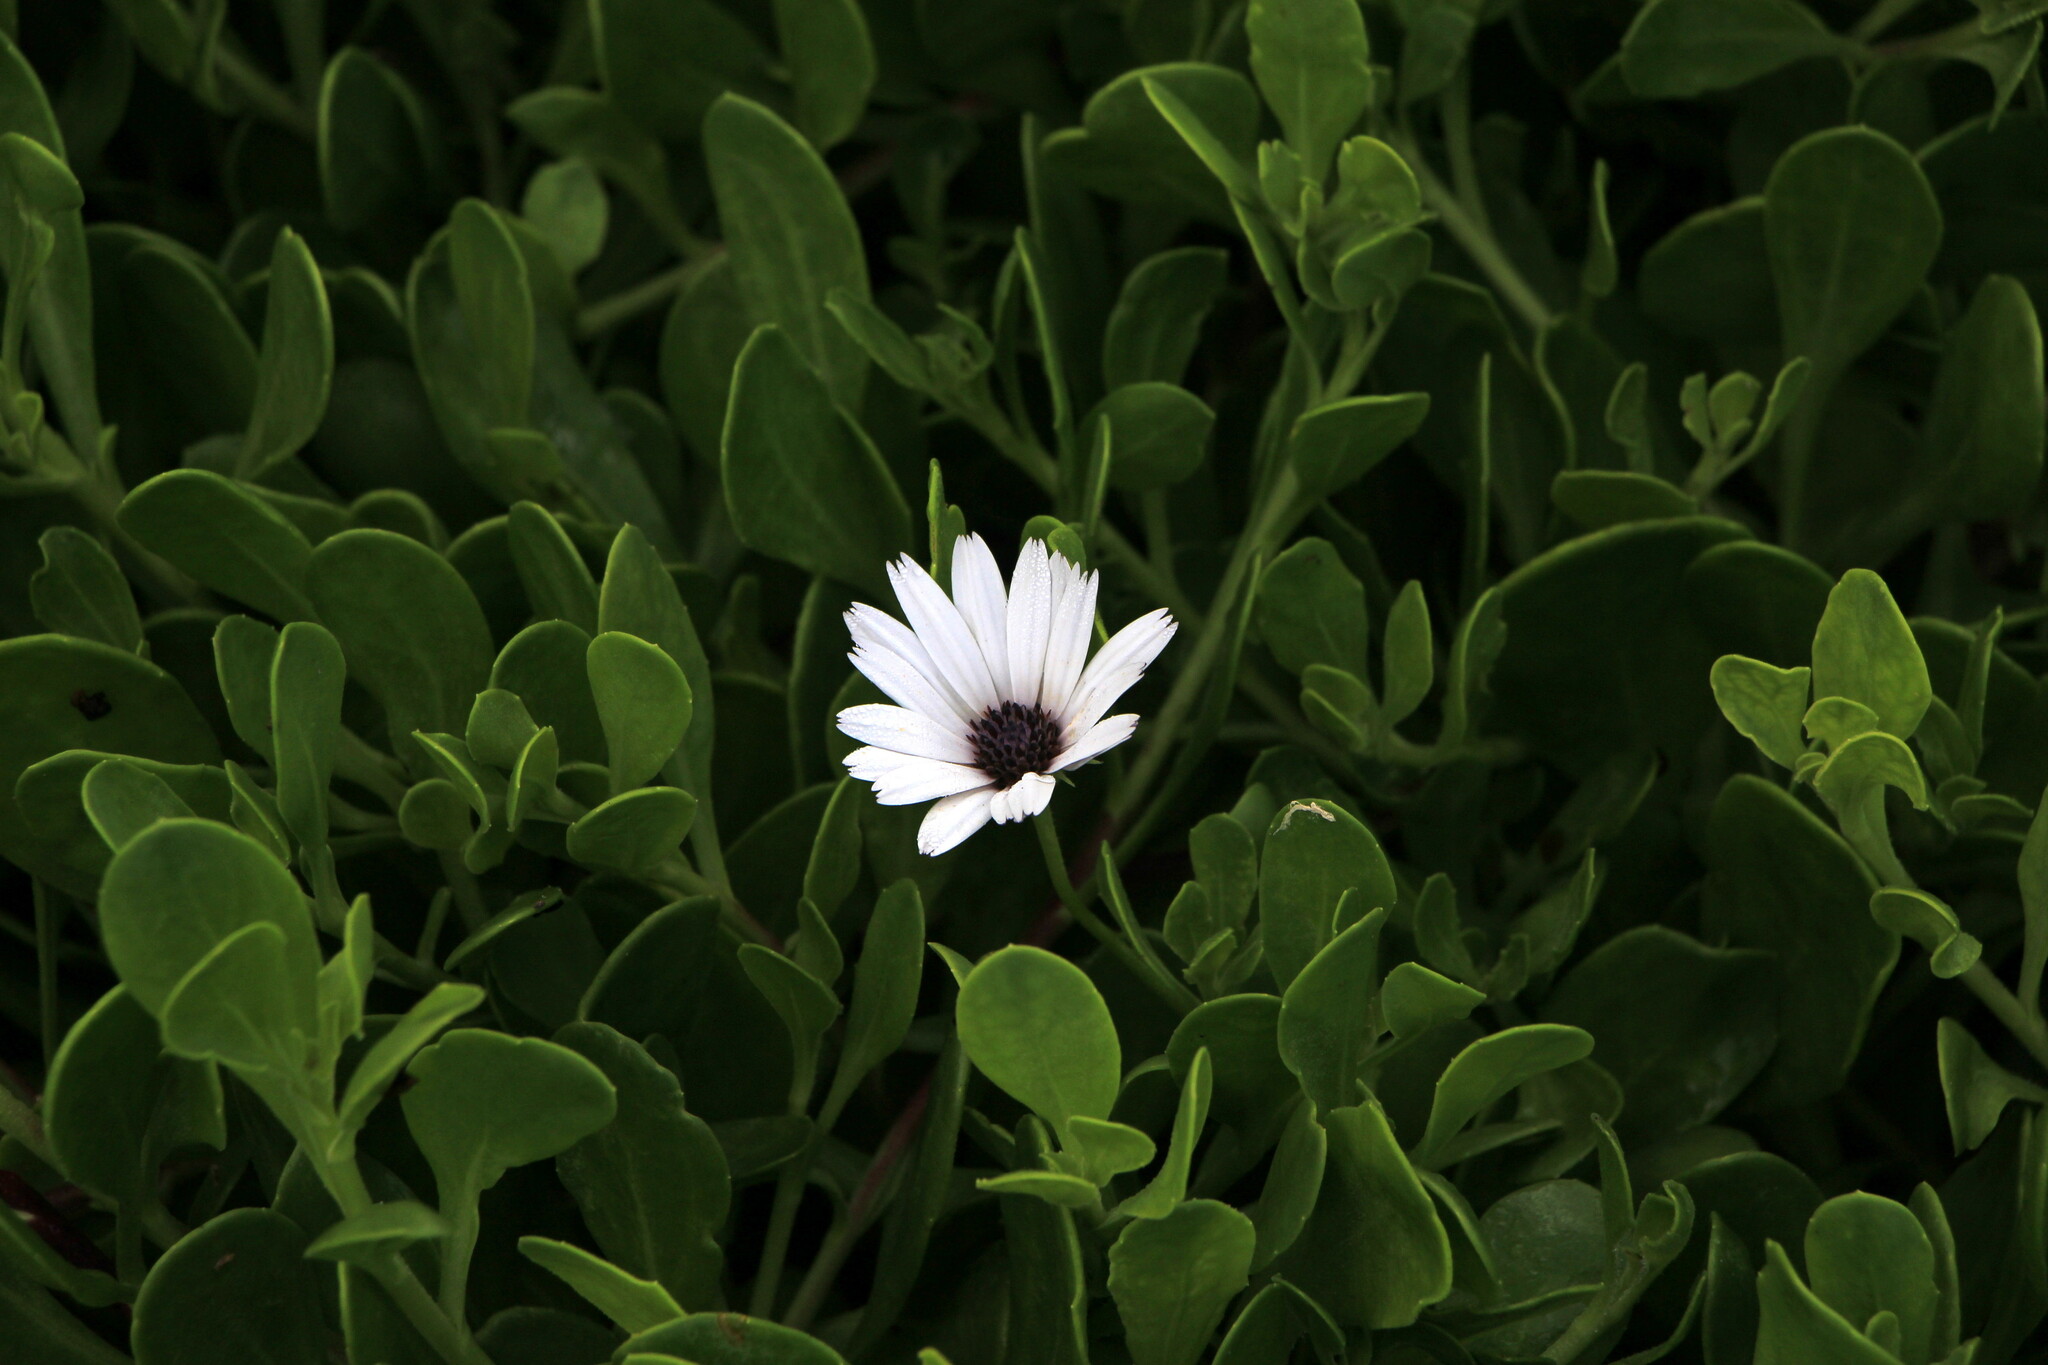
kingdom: Plantae
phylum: Tracheophyta
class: Magnoliopsida
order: Asterales
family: Asteraceae
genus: Dimorphotheca
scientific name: Dimorphotheca fruticosa
